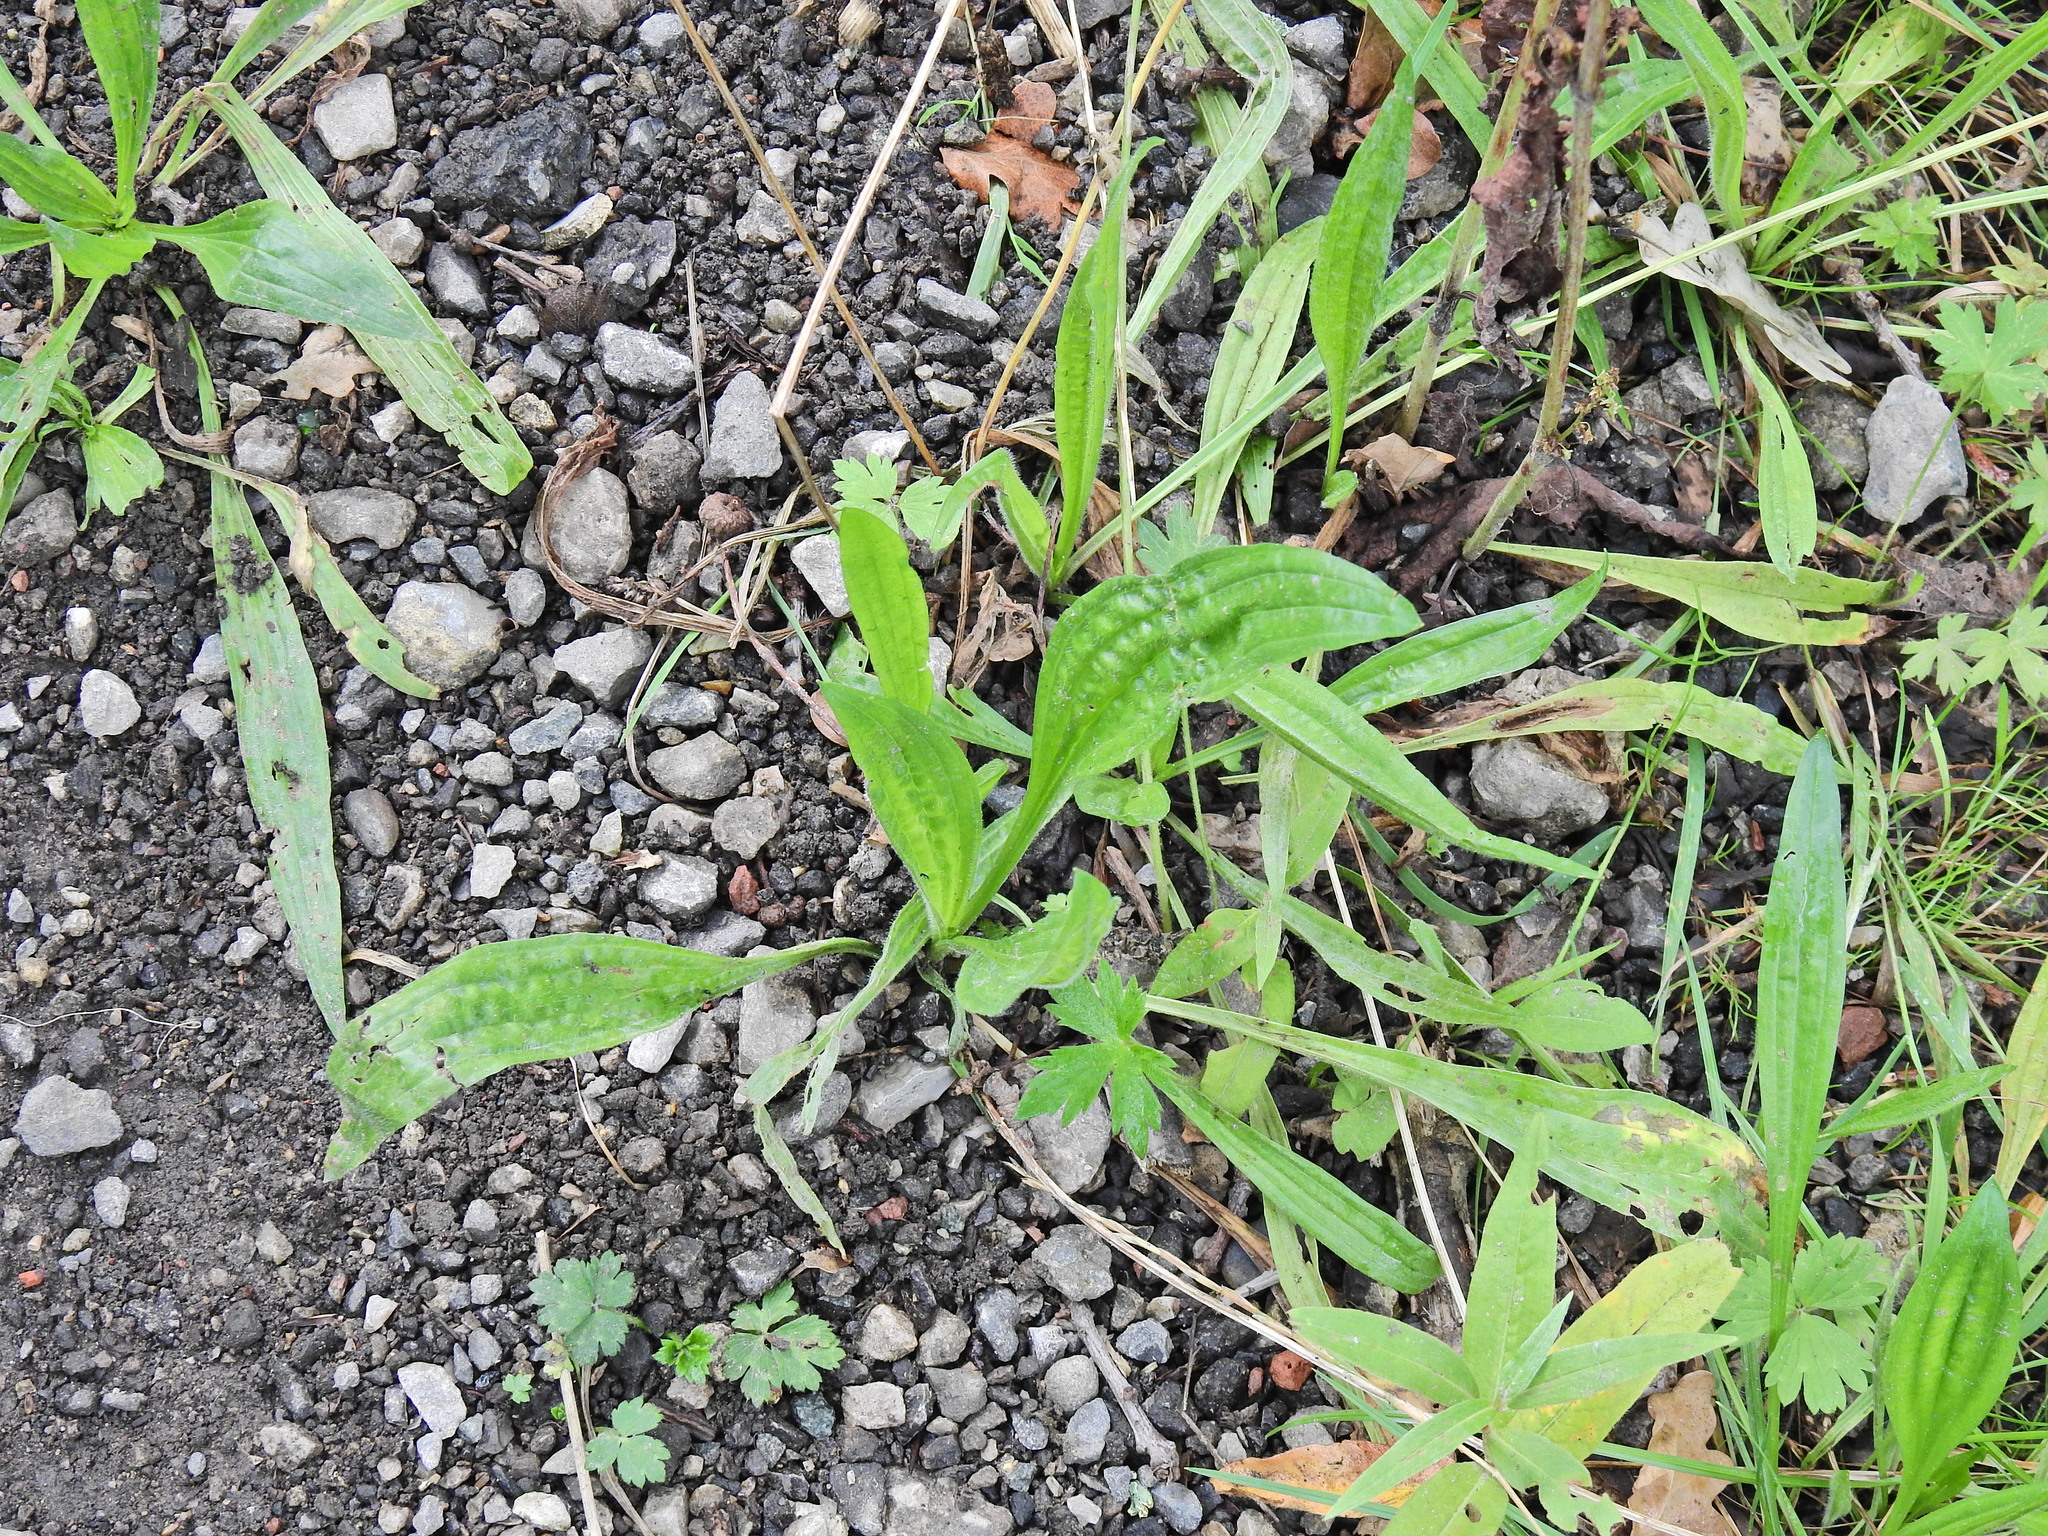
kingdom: Plantae
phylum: Tracheophyta
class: Magnoliopsida
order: Lamiales
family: Plantaginaceae
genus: Plantago
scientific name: Plantago lanceolata
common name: Ribwort plantain
